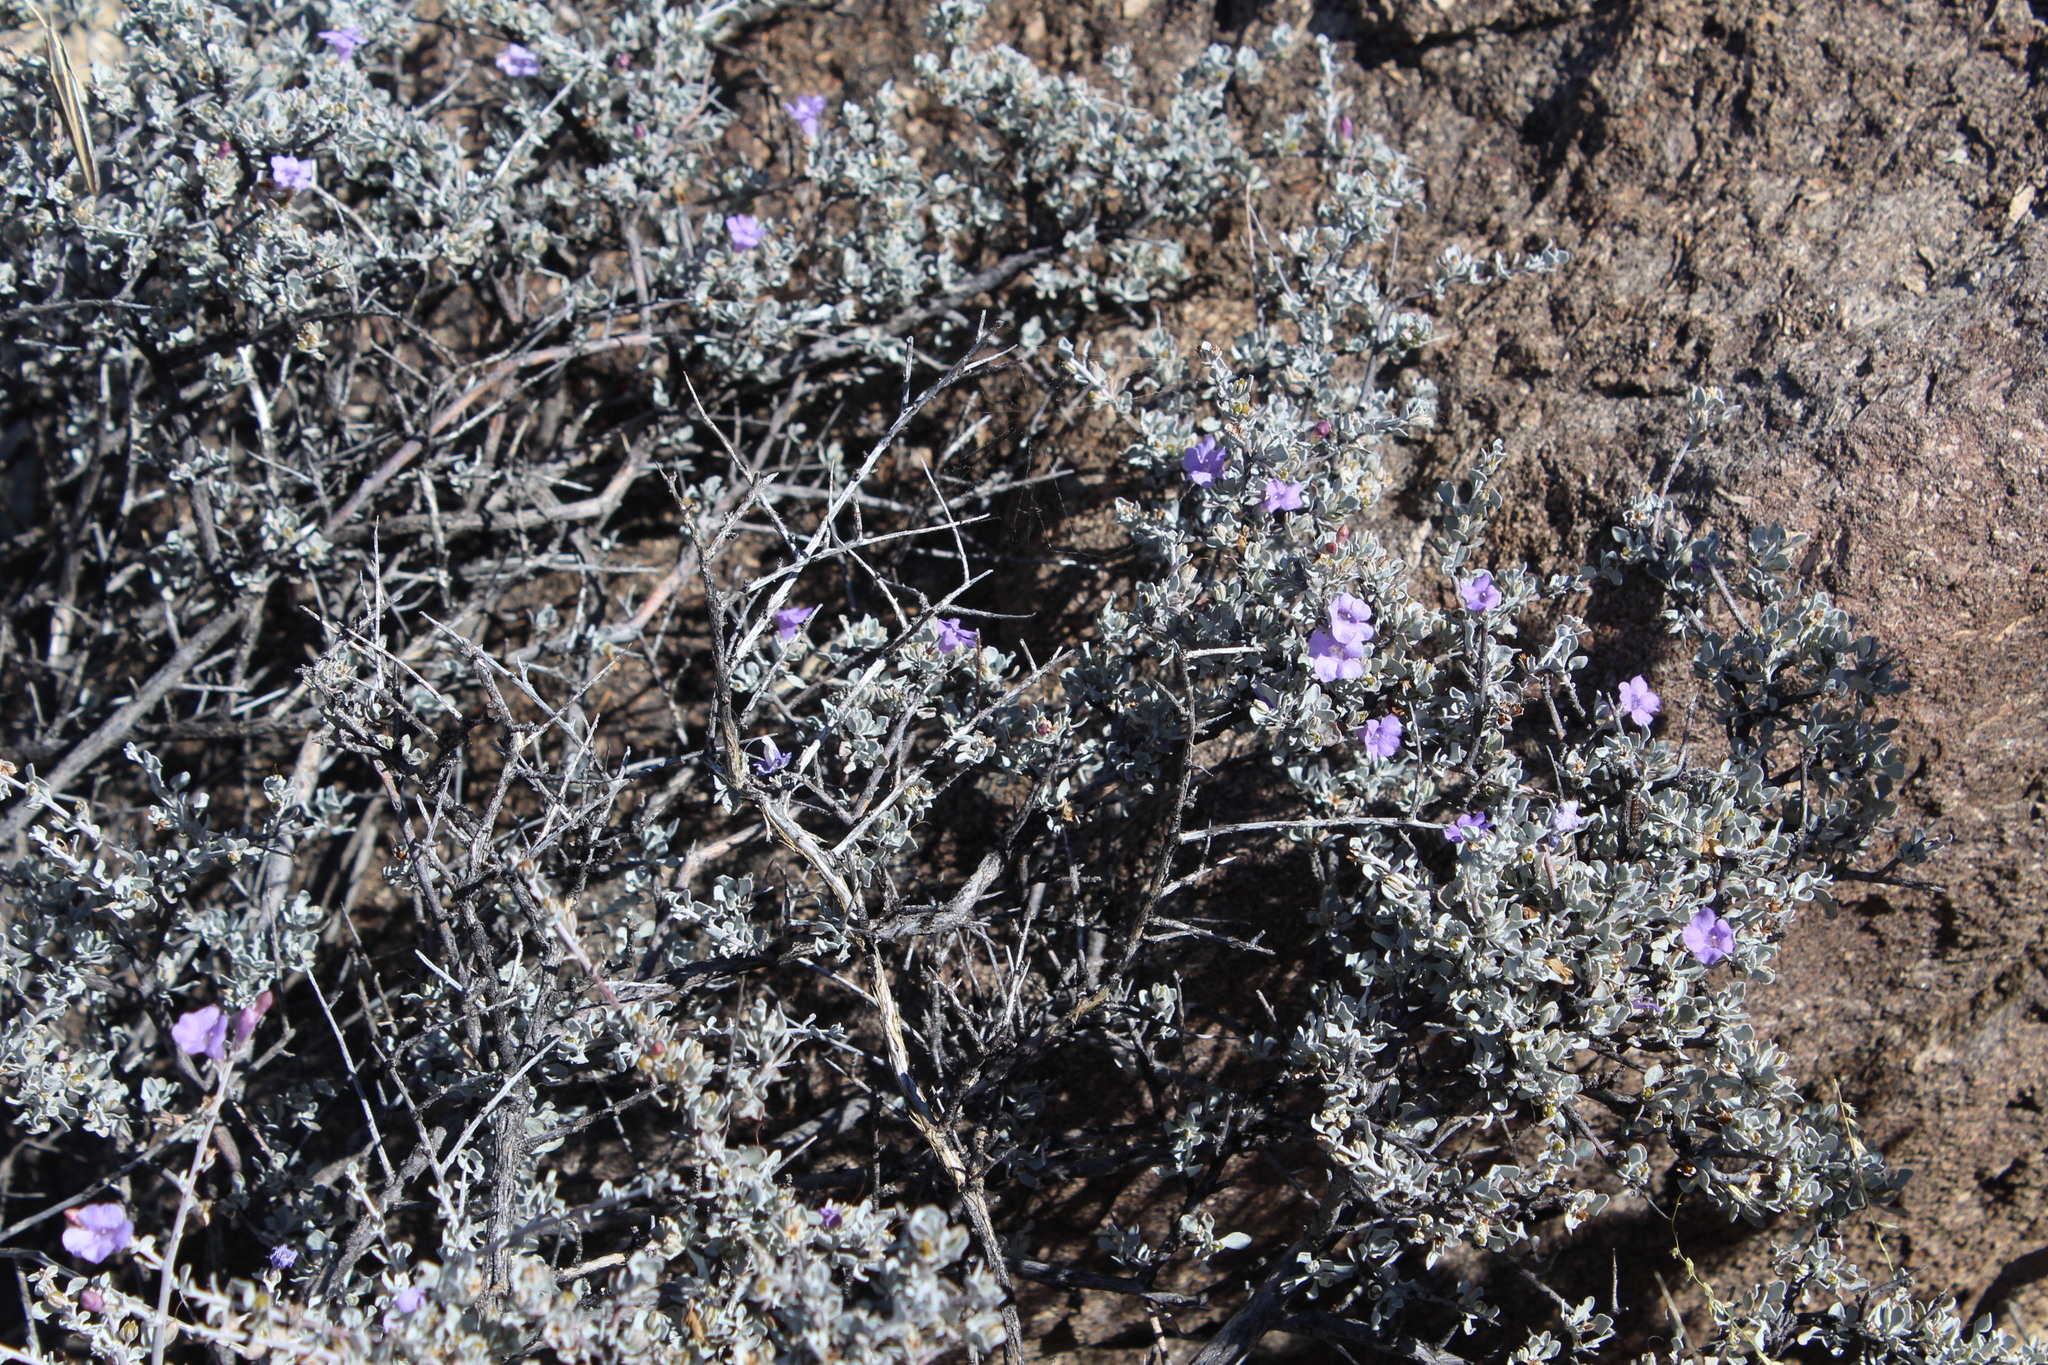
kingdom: Plantae
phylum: Tracheophyta
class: Magnoliopsida
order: Lamiales
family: Scrophulariaceae
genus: Leucophyllum
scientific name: Leucophyllum minus
